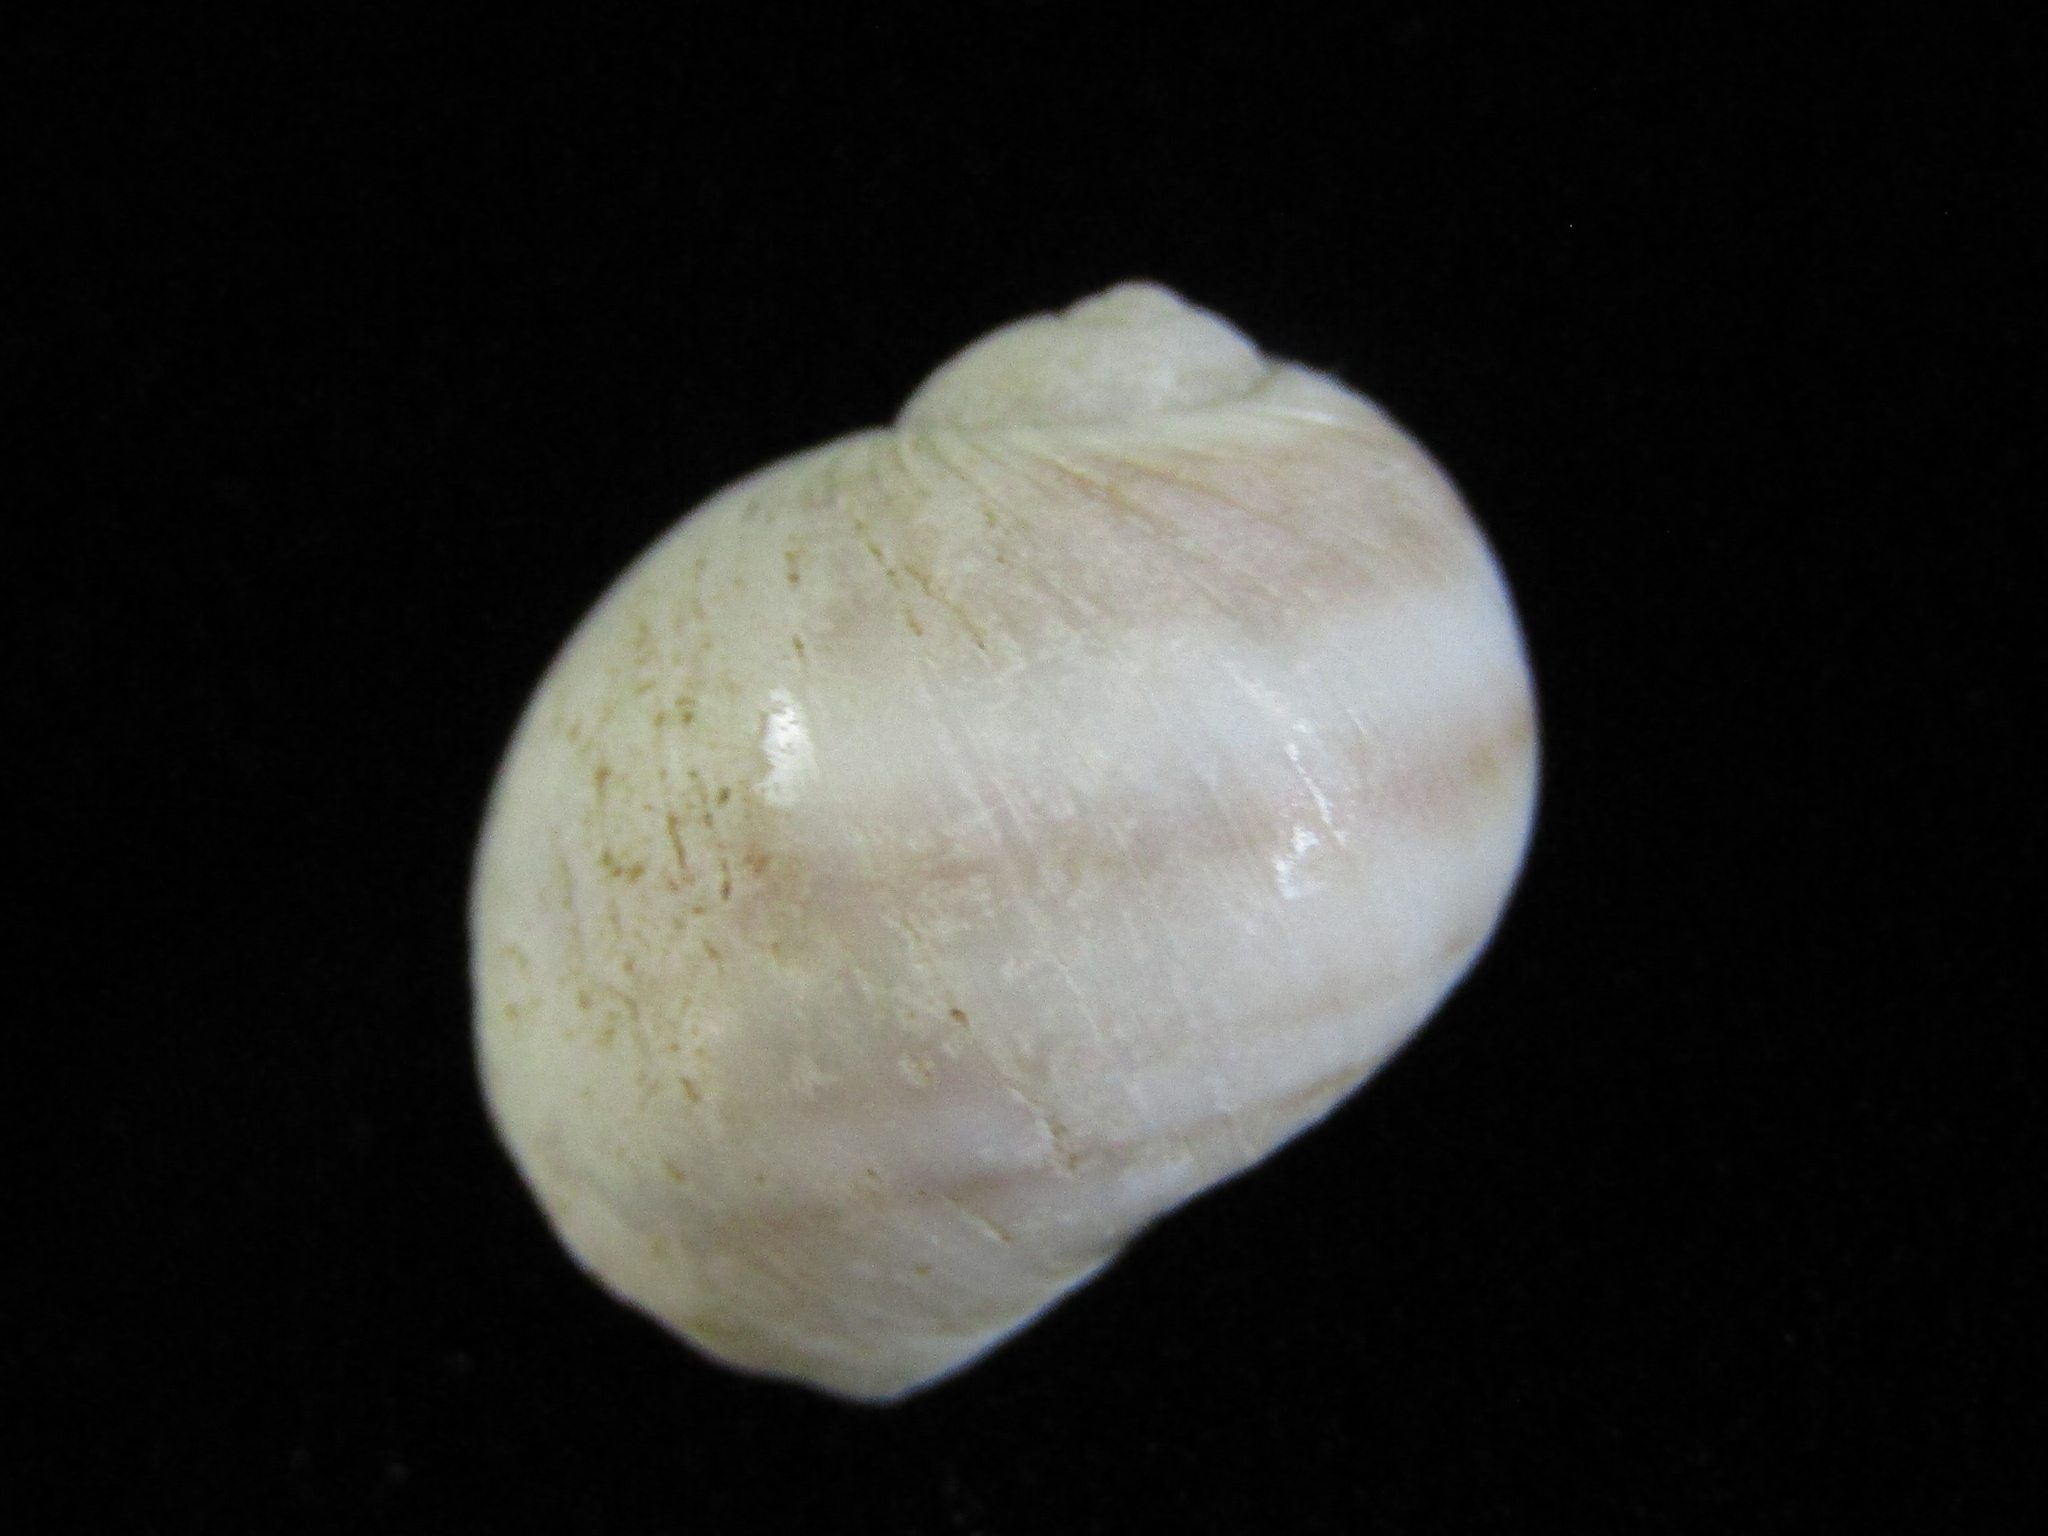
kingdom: Animalia
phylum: Mollusca
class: Gastropoda
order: Littorinimorpha
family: Naticidae
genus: Notocochlis
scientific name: Notocochlis gualteriana
